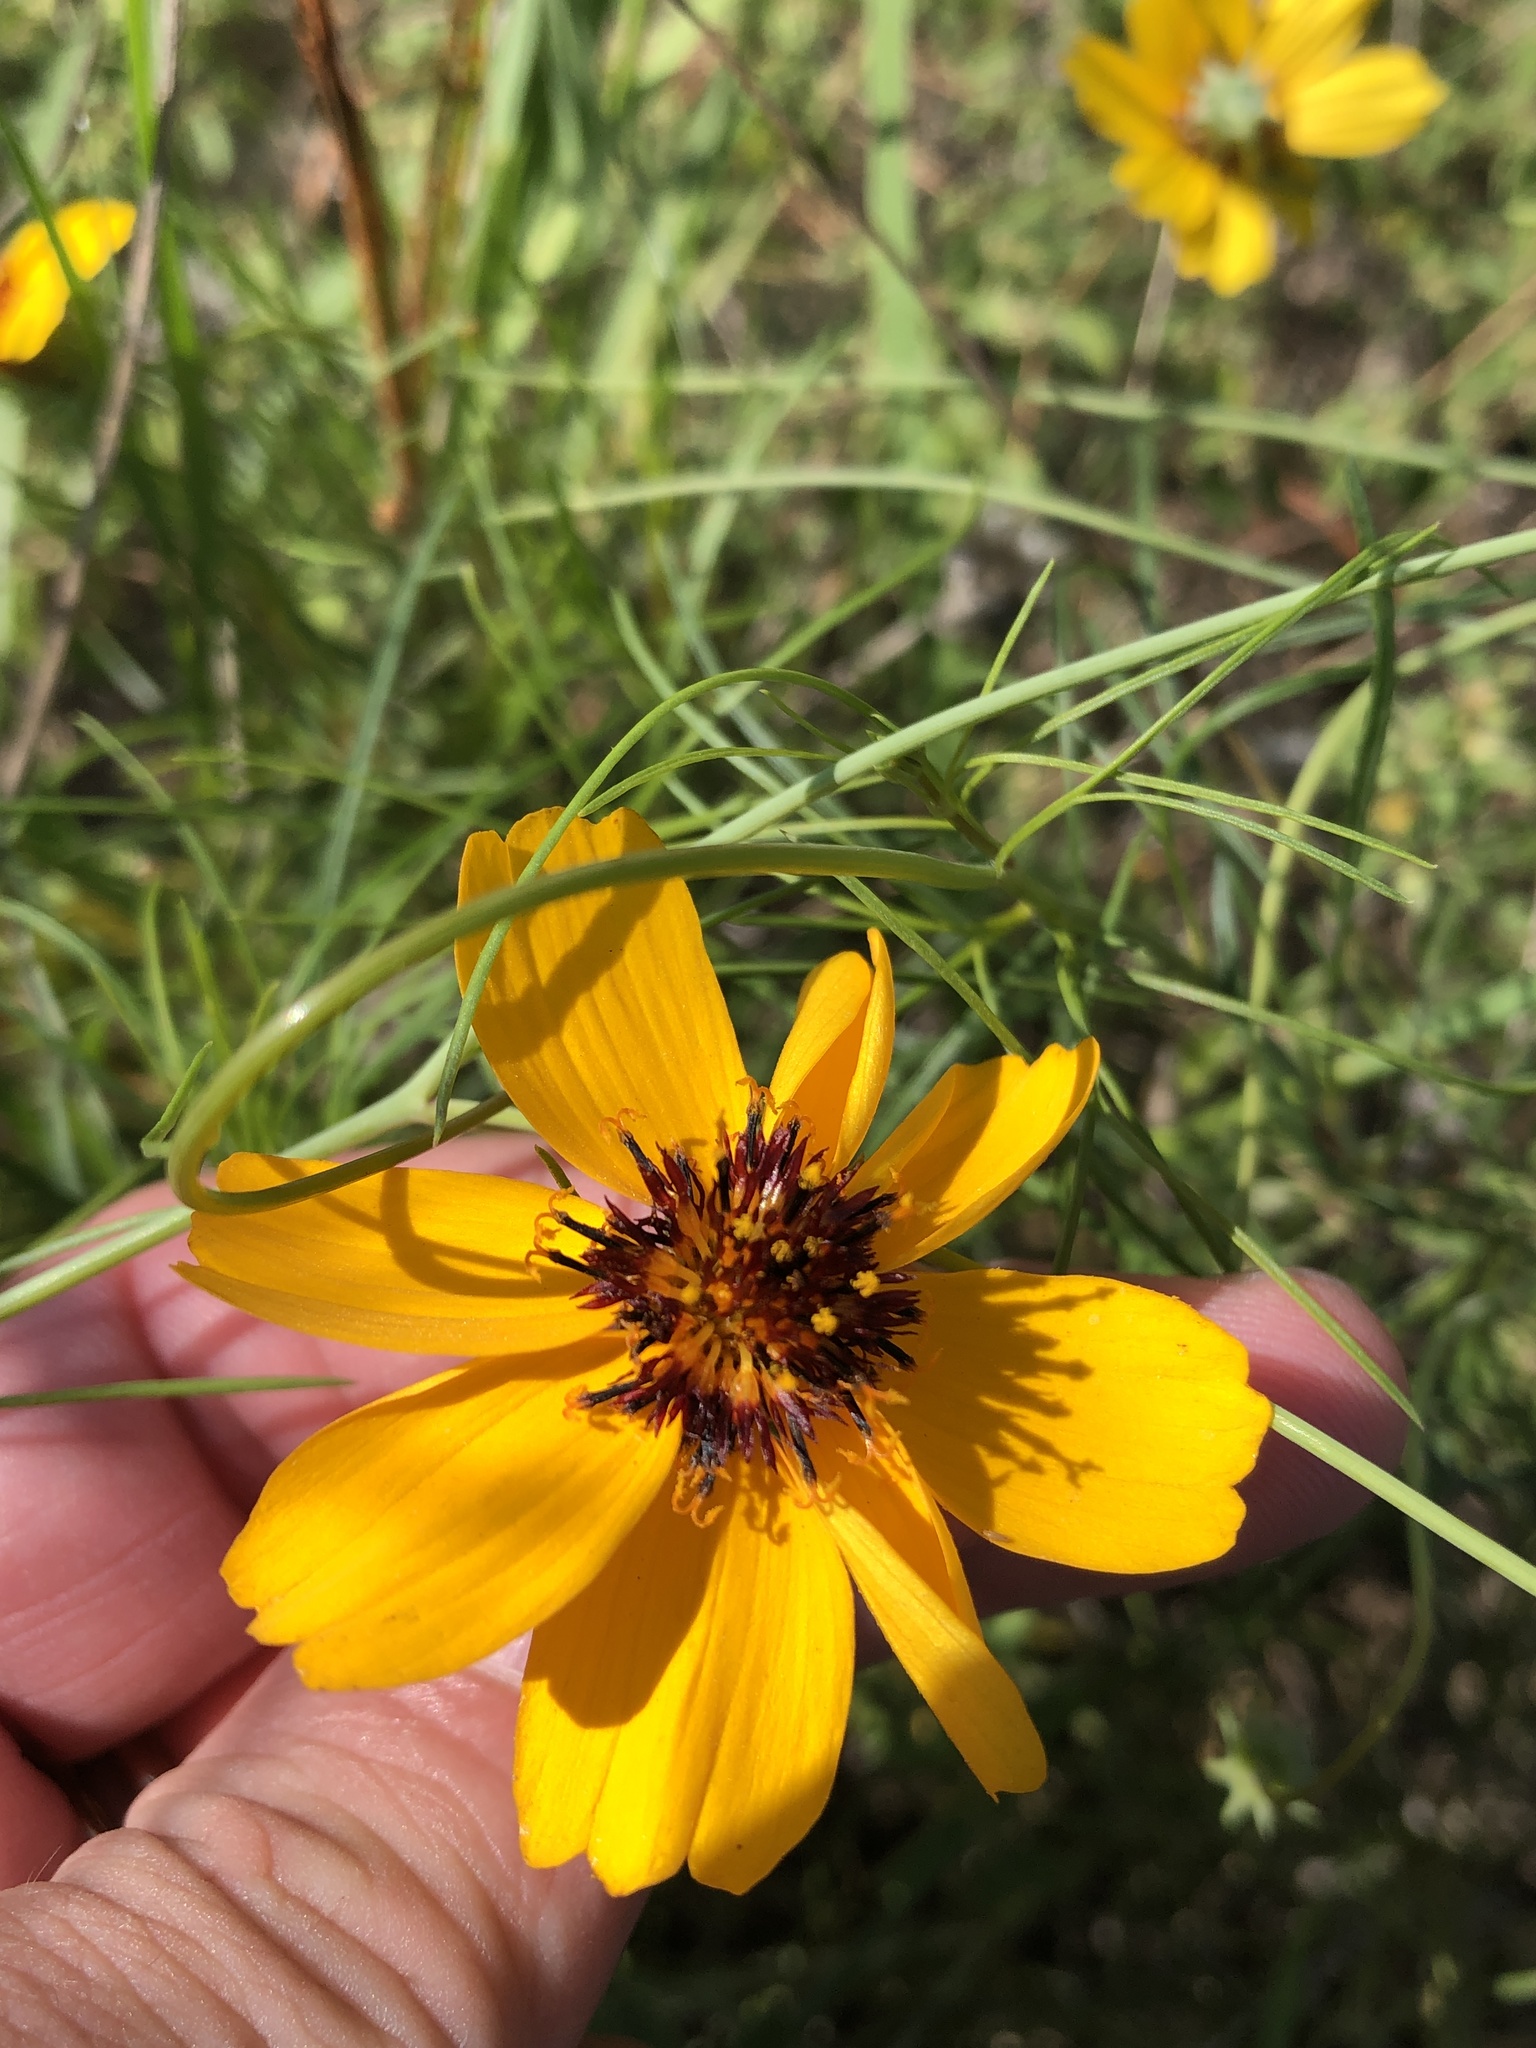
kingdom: Plantae
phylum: Tracheophyta
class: Magnoliopsida
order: Asterales
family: Asteraceae
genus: Thelesperma
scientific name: Thelesperma filifolium
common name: Stiff greenthread
